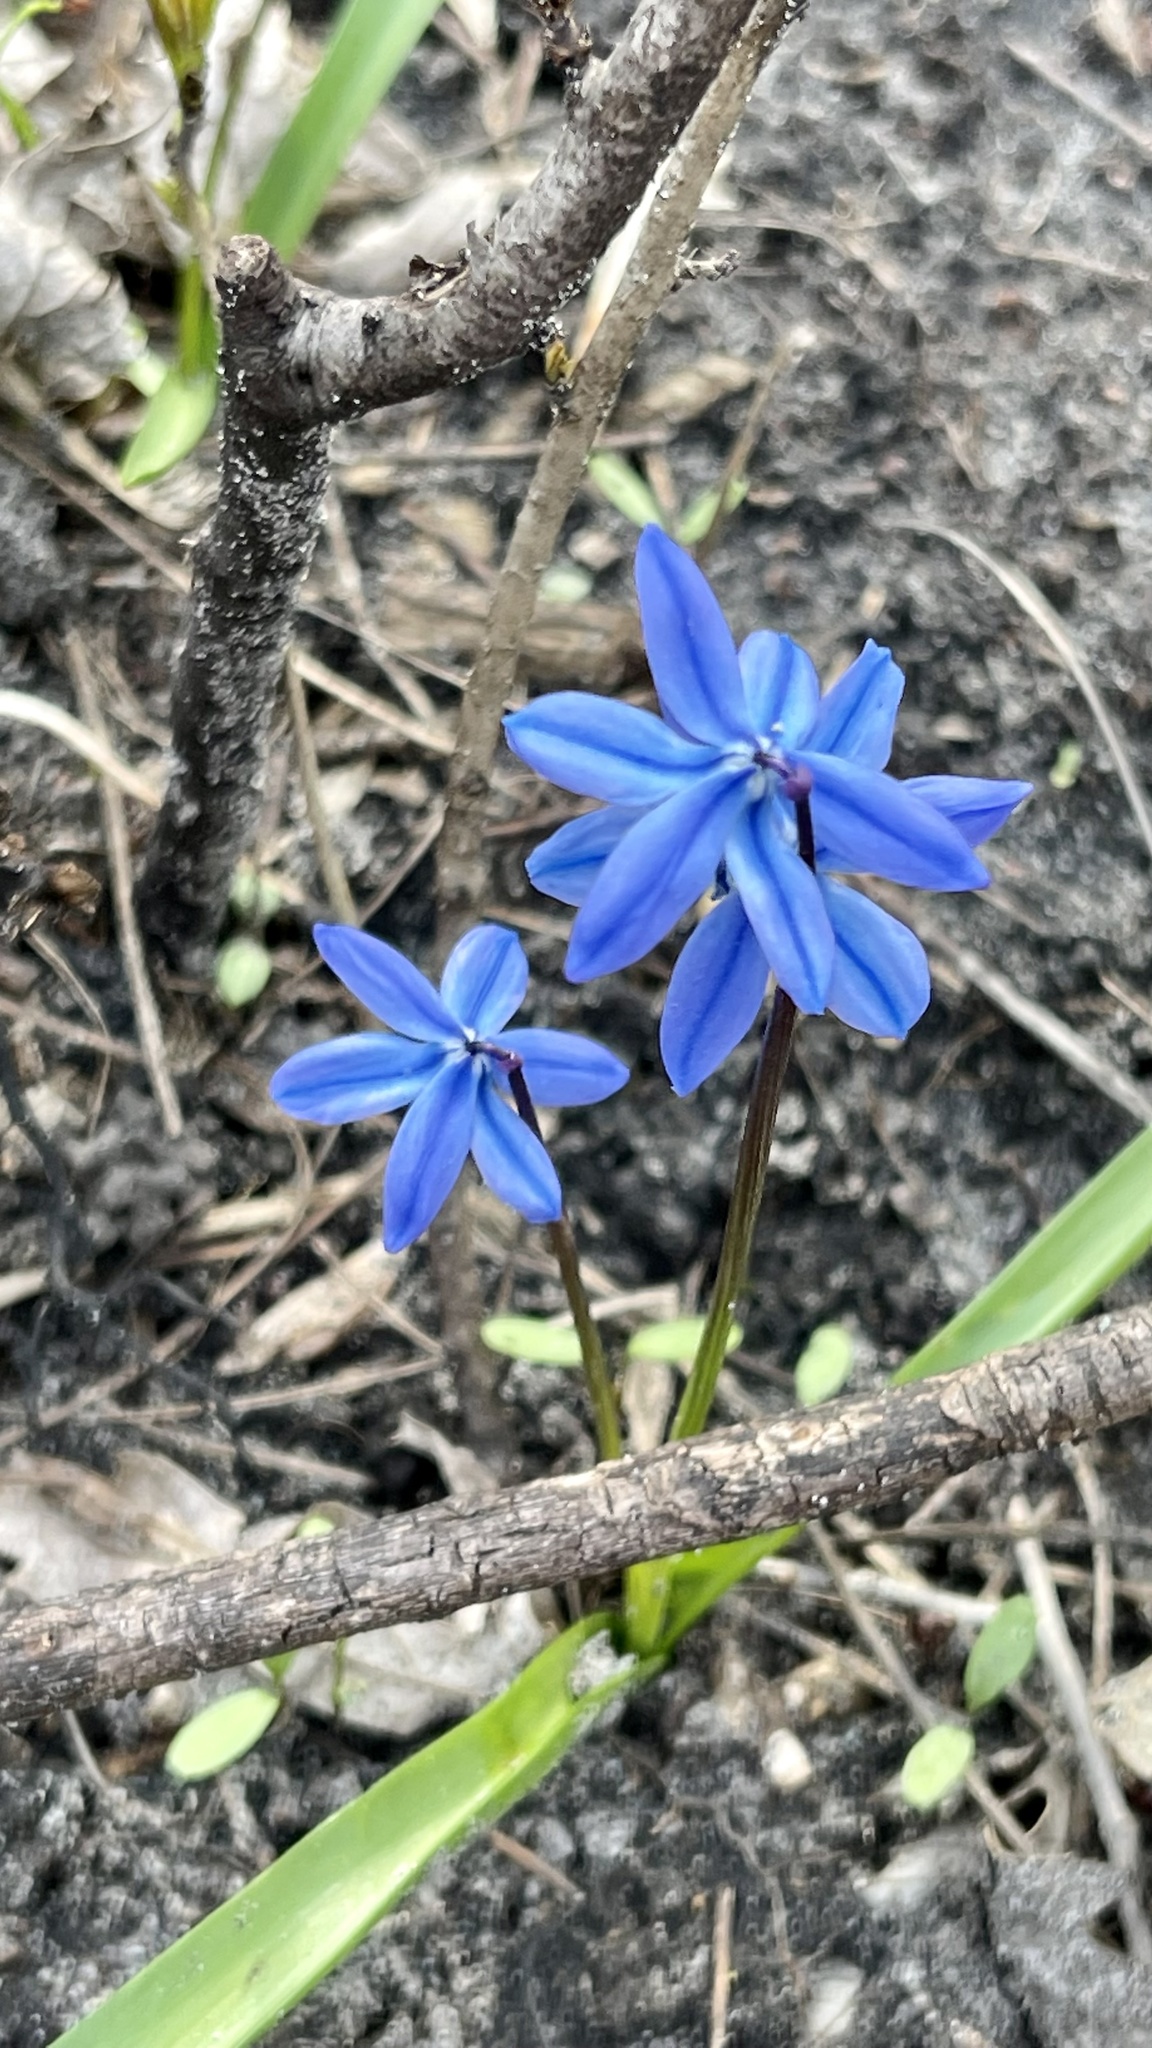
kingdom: Plantae
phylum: Tracheophyta
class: Liliopsida
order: Asparagales
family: Asparagaceae
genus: Scilla
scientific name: Scilla siberica
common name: Siberian squill
